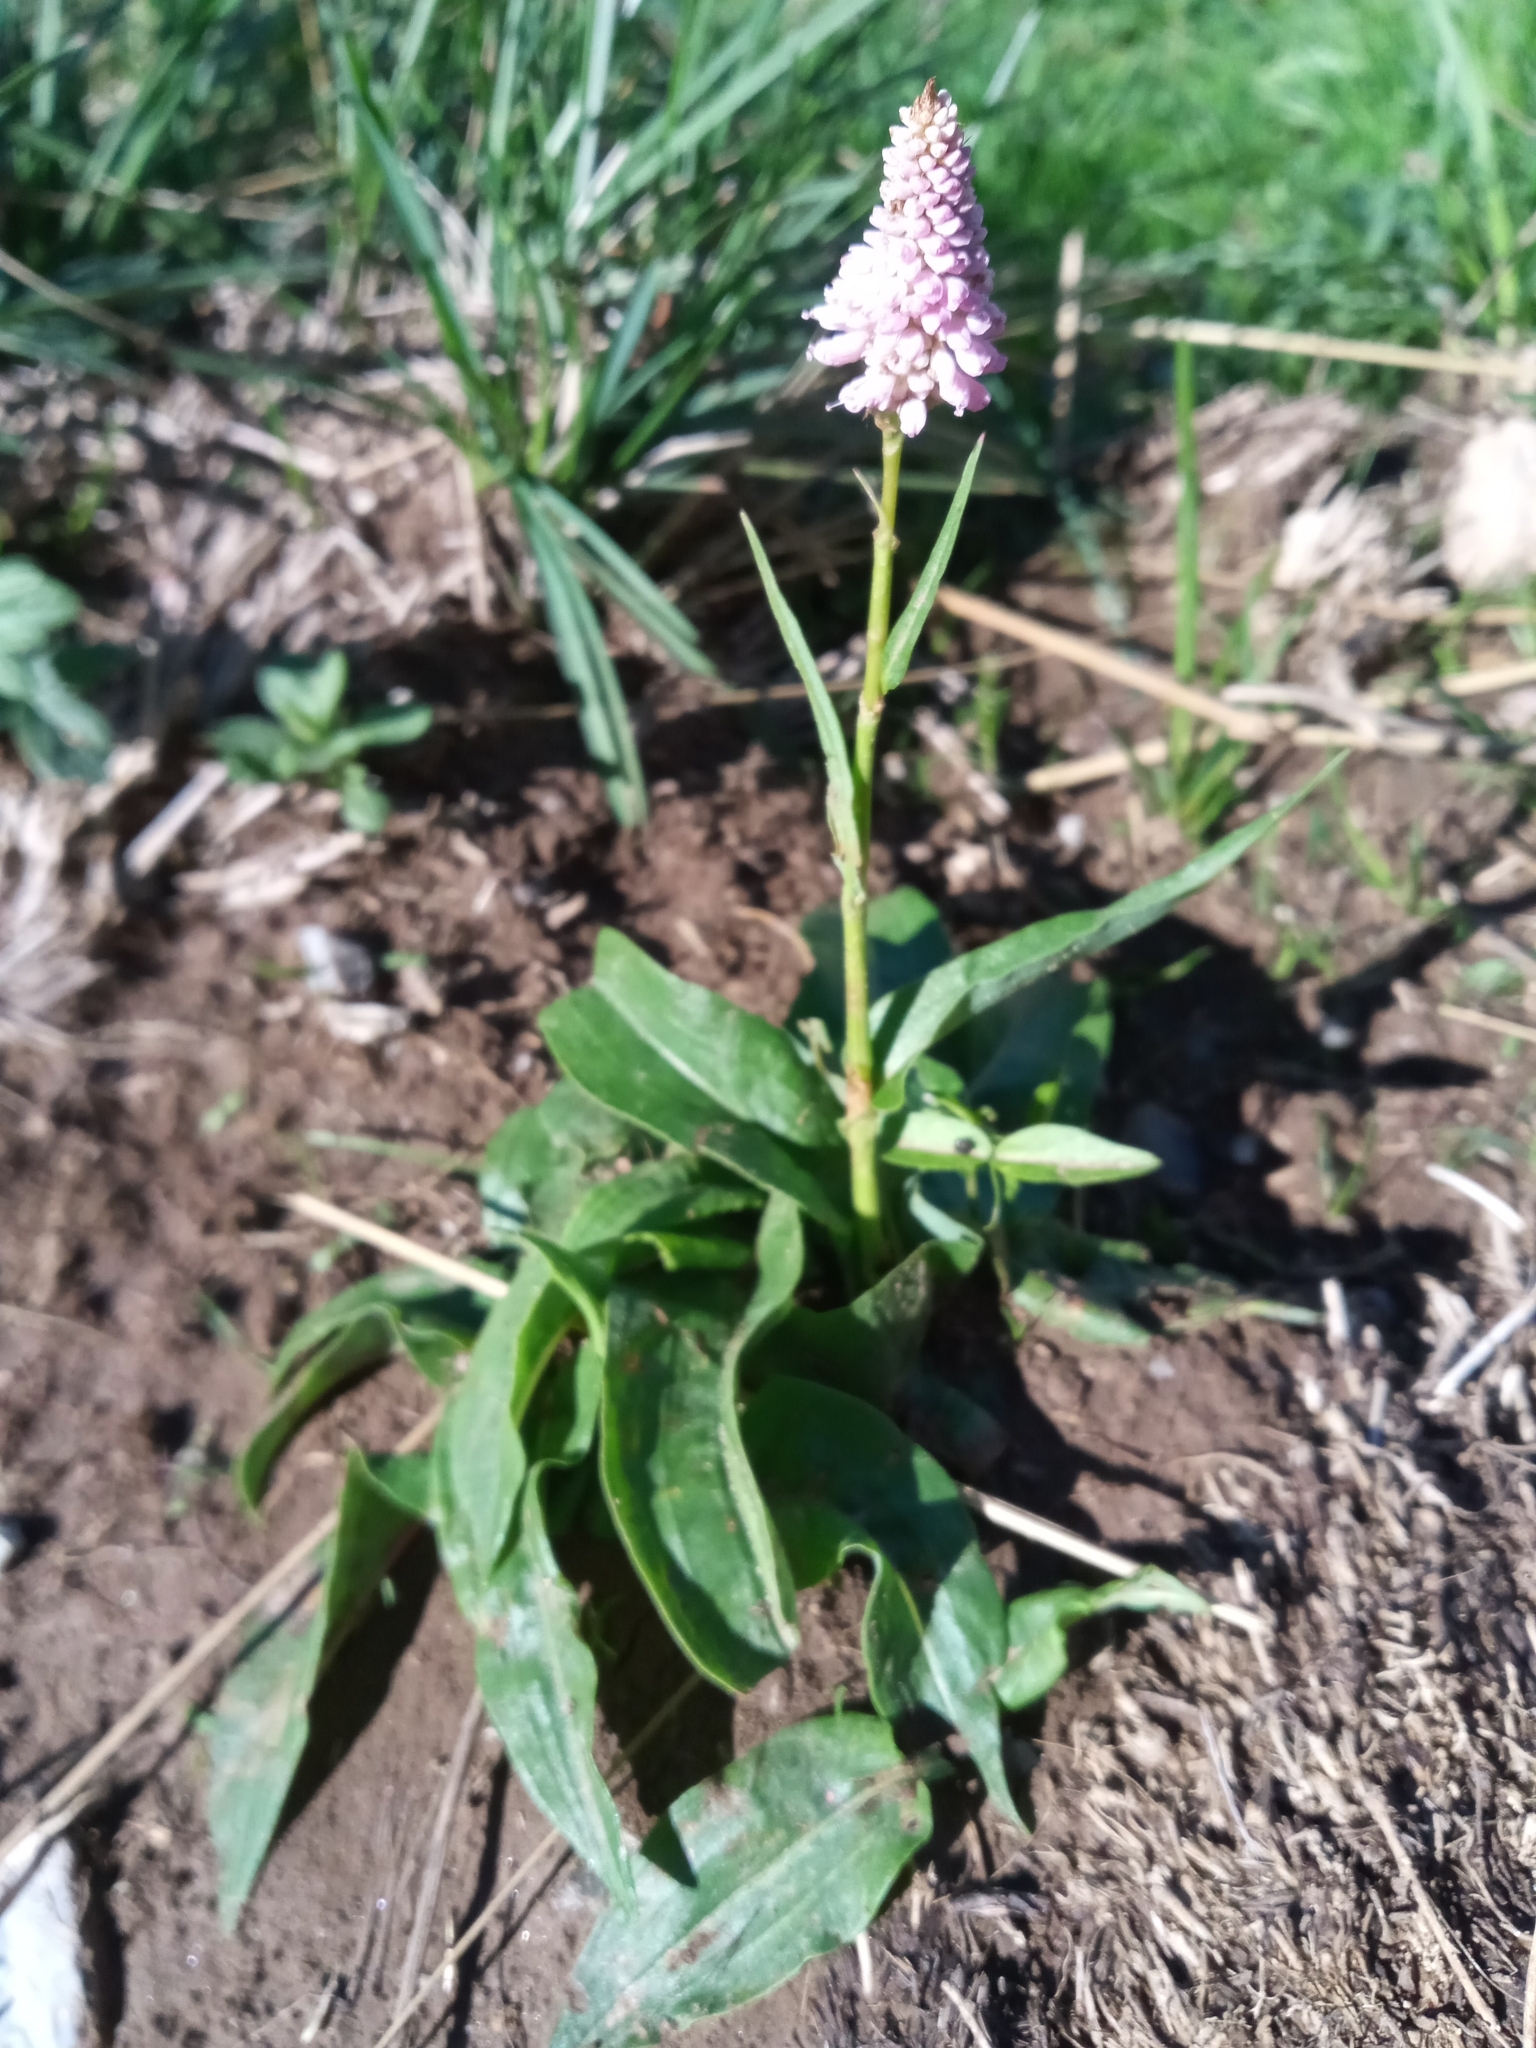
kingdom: Plantae
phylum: Tracheophyta
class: Magnoliopsida
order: Caryophyllales
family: Polygonaceae
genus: Bistorta
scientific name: Bistorta officinalis
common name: Common bistort
